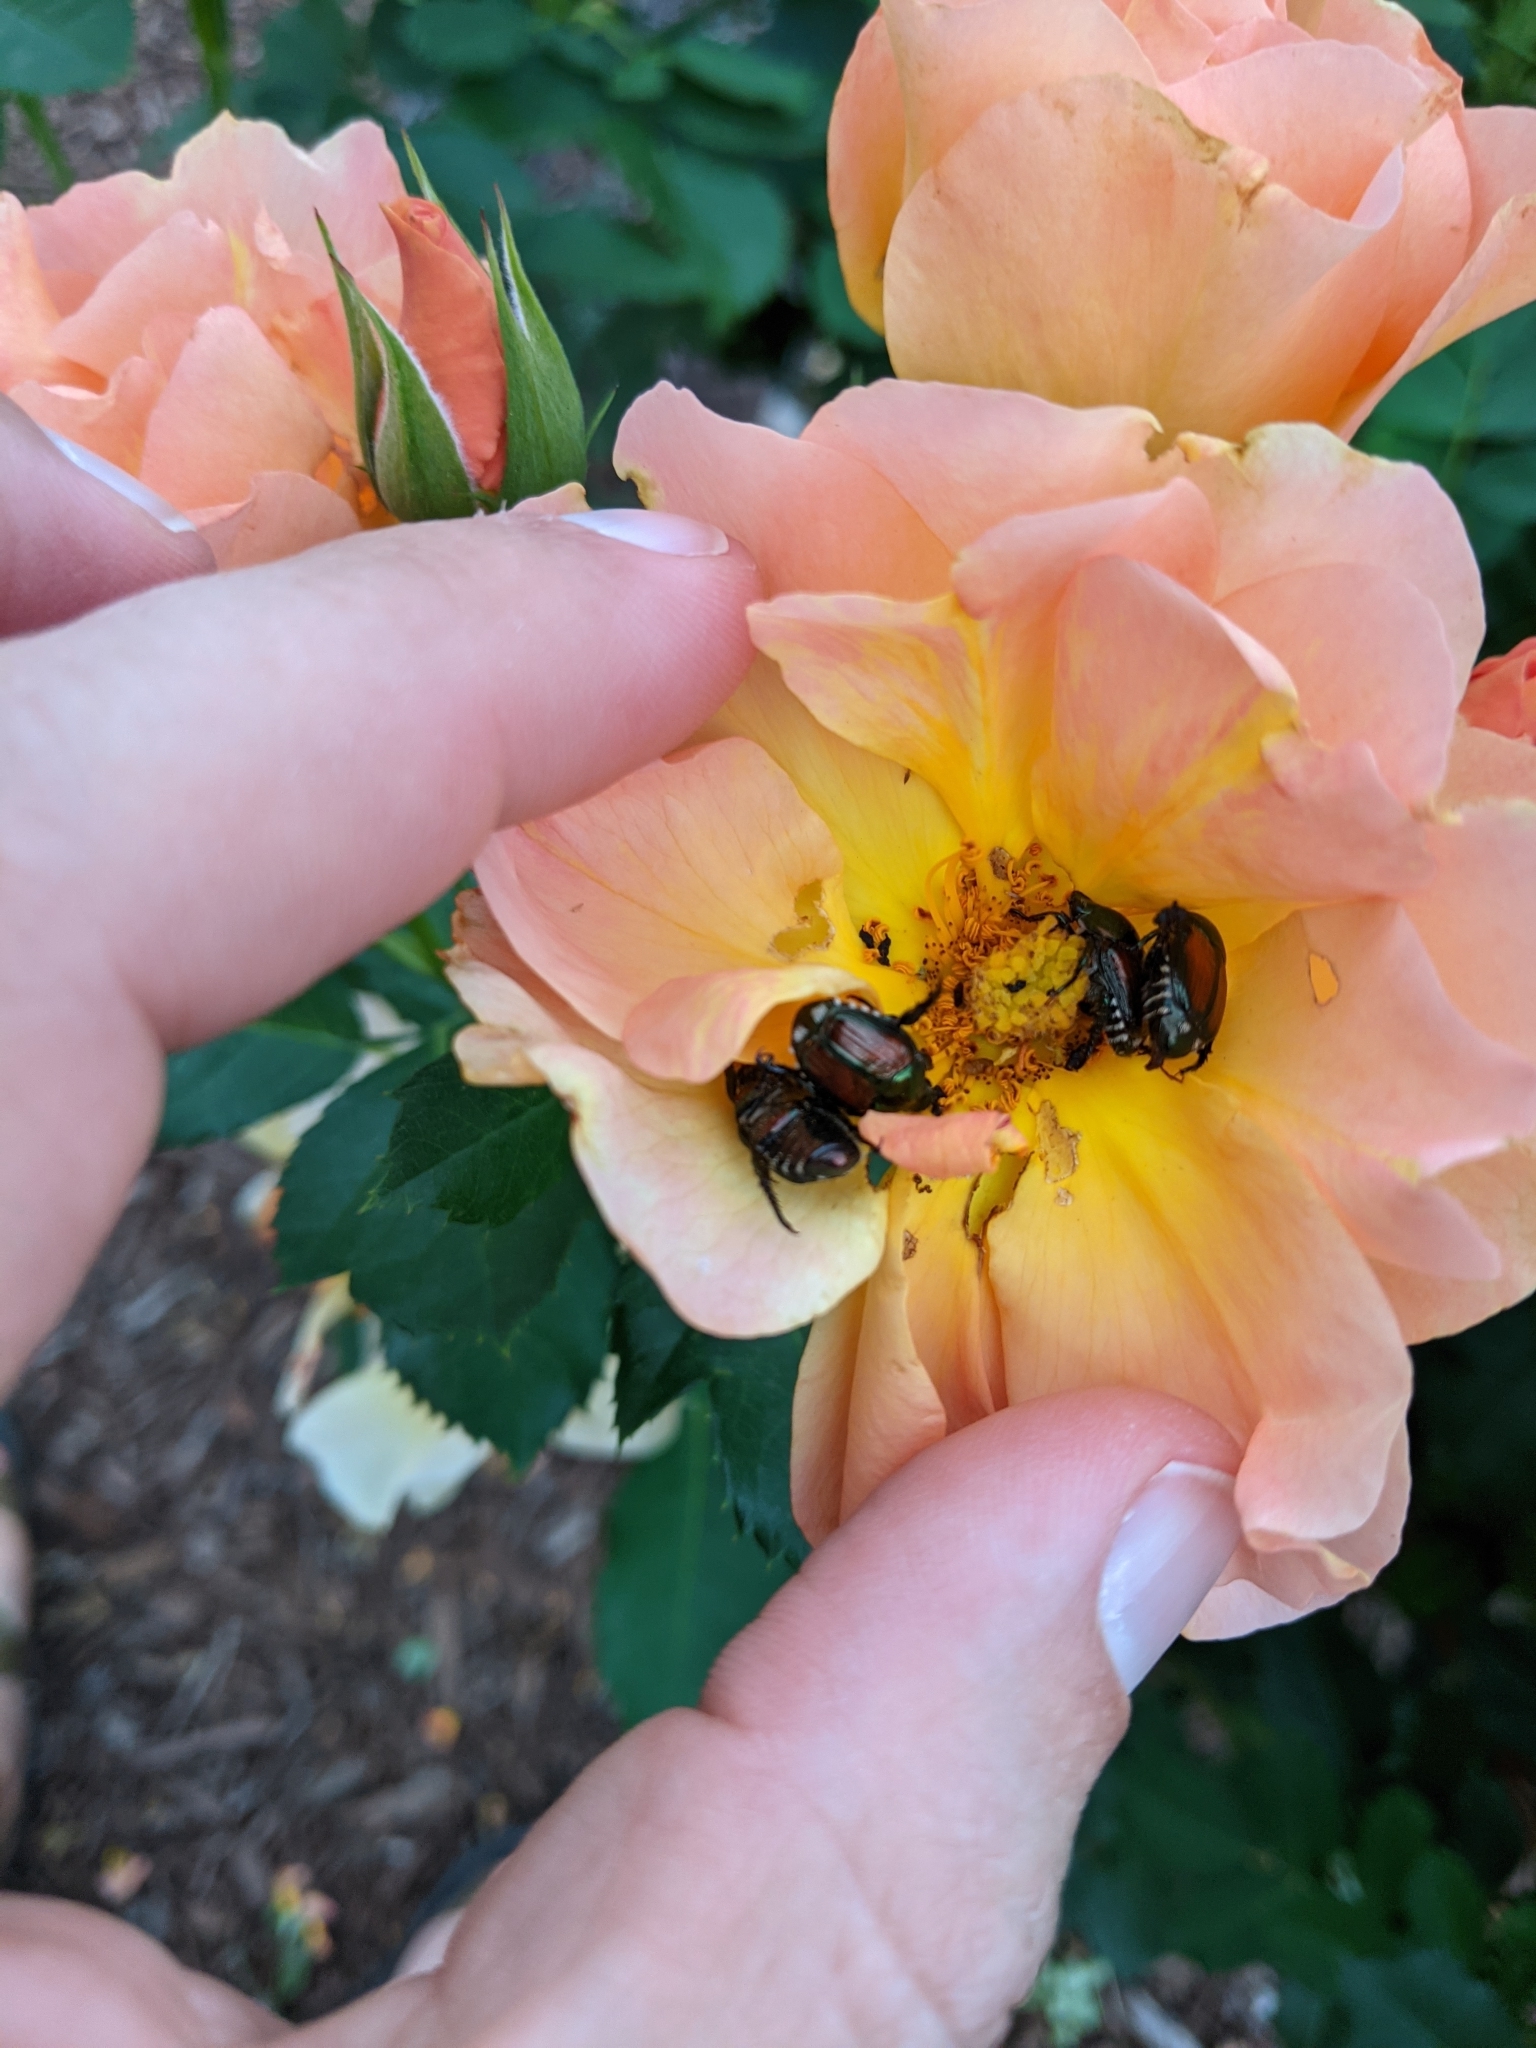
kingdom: Animalia
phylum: Arthropoda
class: Insecta
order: Coleoptera
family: Scarabaeidae
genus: Popillia
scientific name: Popillia japonica
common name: Japanese beetle
